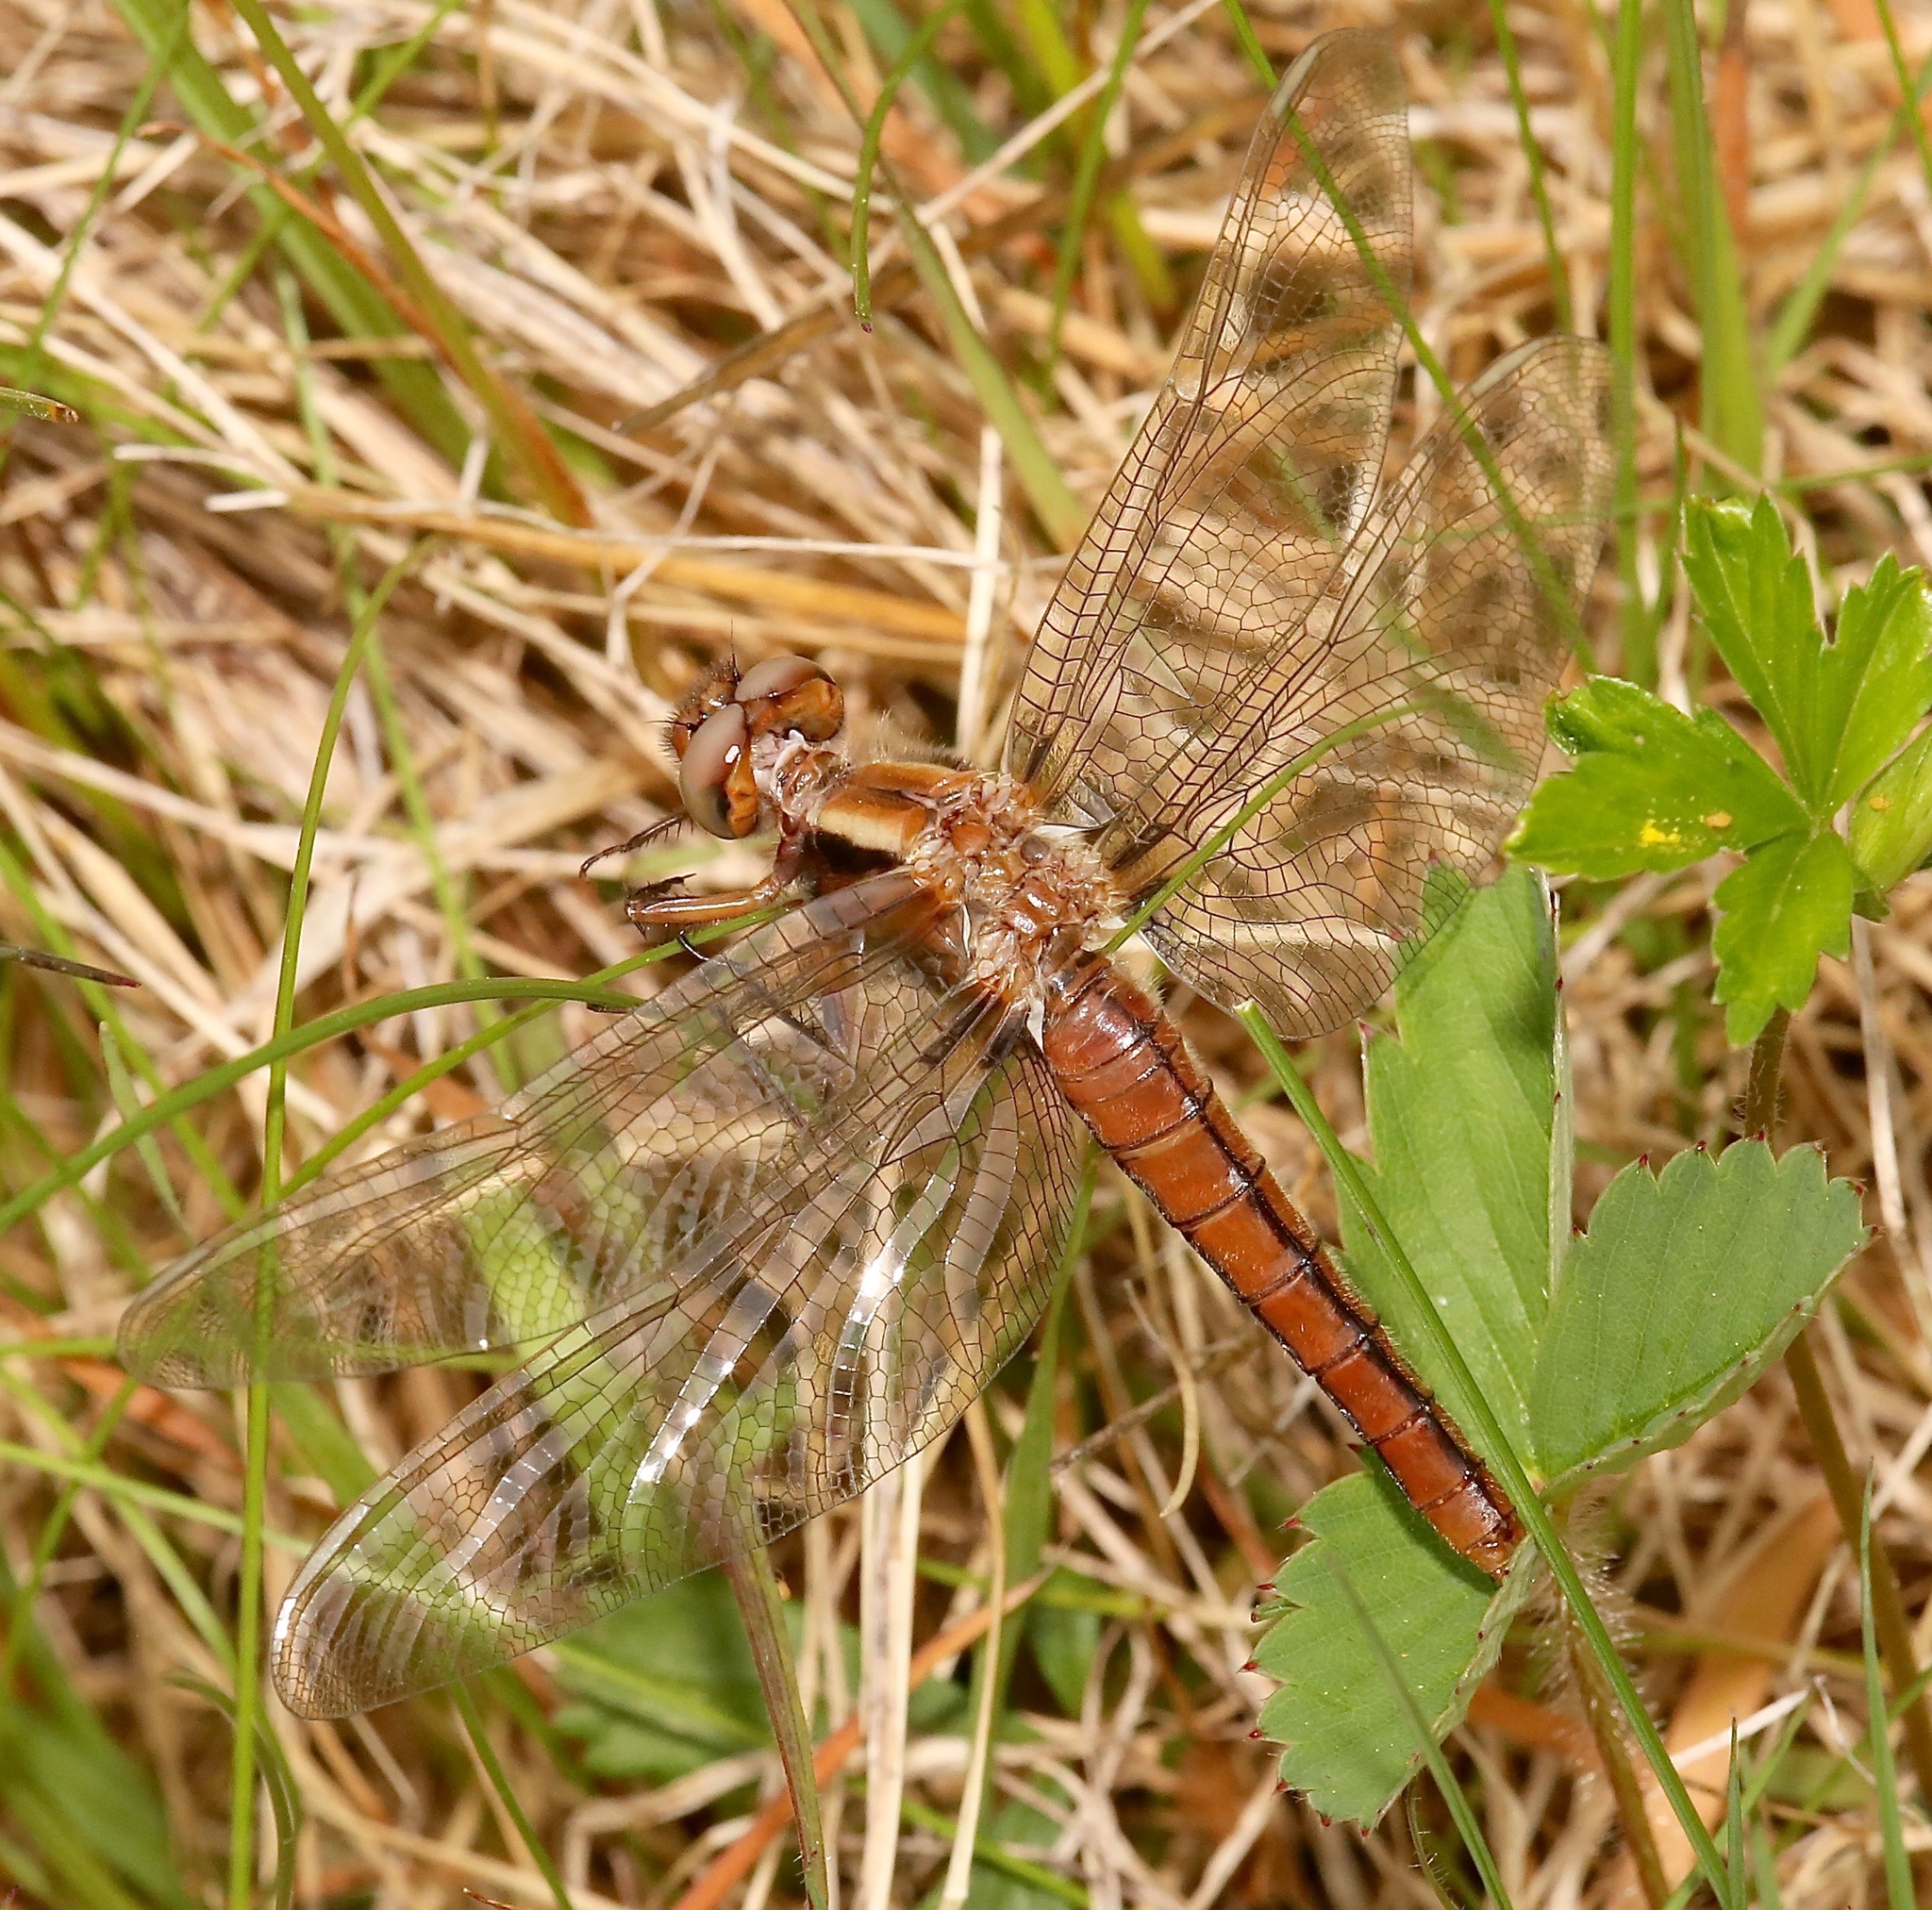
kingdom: Animalia
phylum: Arthropoda
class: Insecta
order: Odonata
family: Libellulidae
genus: Ladona
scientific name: Ladona julia
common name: Chalk-fronted corporal
